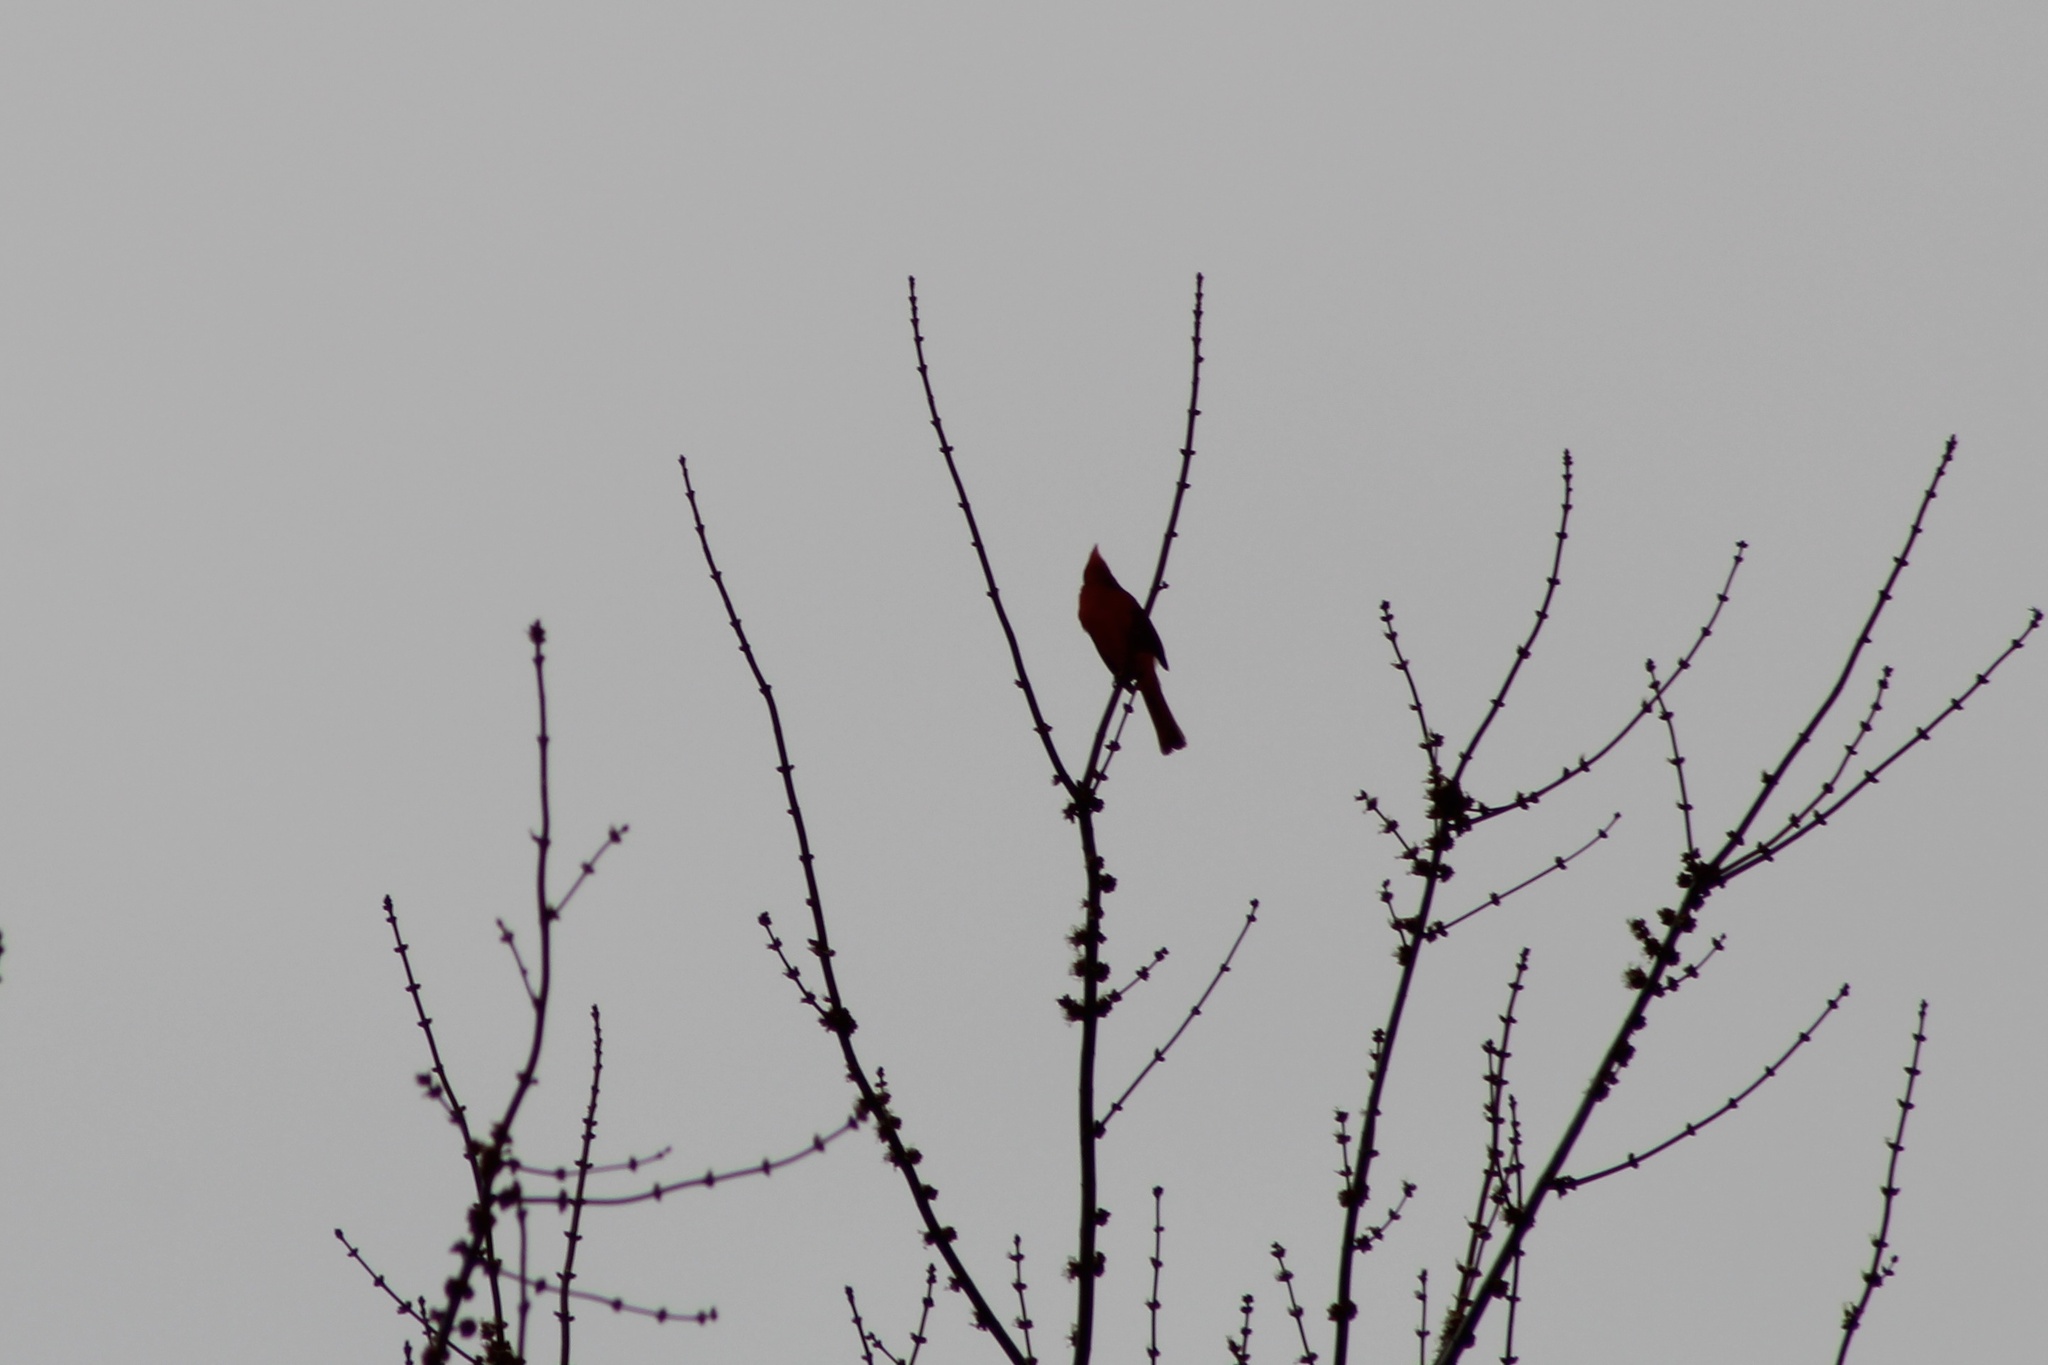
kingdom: Animalia
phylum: Chordata
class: Aves
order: Passeriformes
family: Cardinalidae
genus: Cardinalis
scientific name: Cardinalis cardinalis
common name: Northern cardinal
